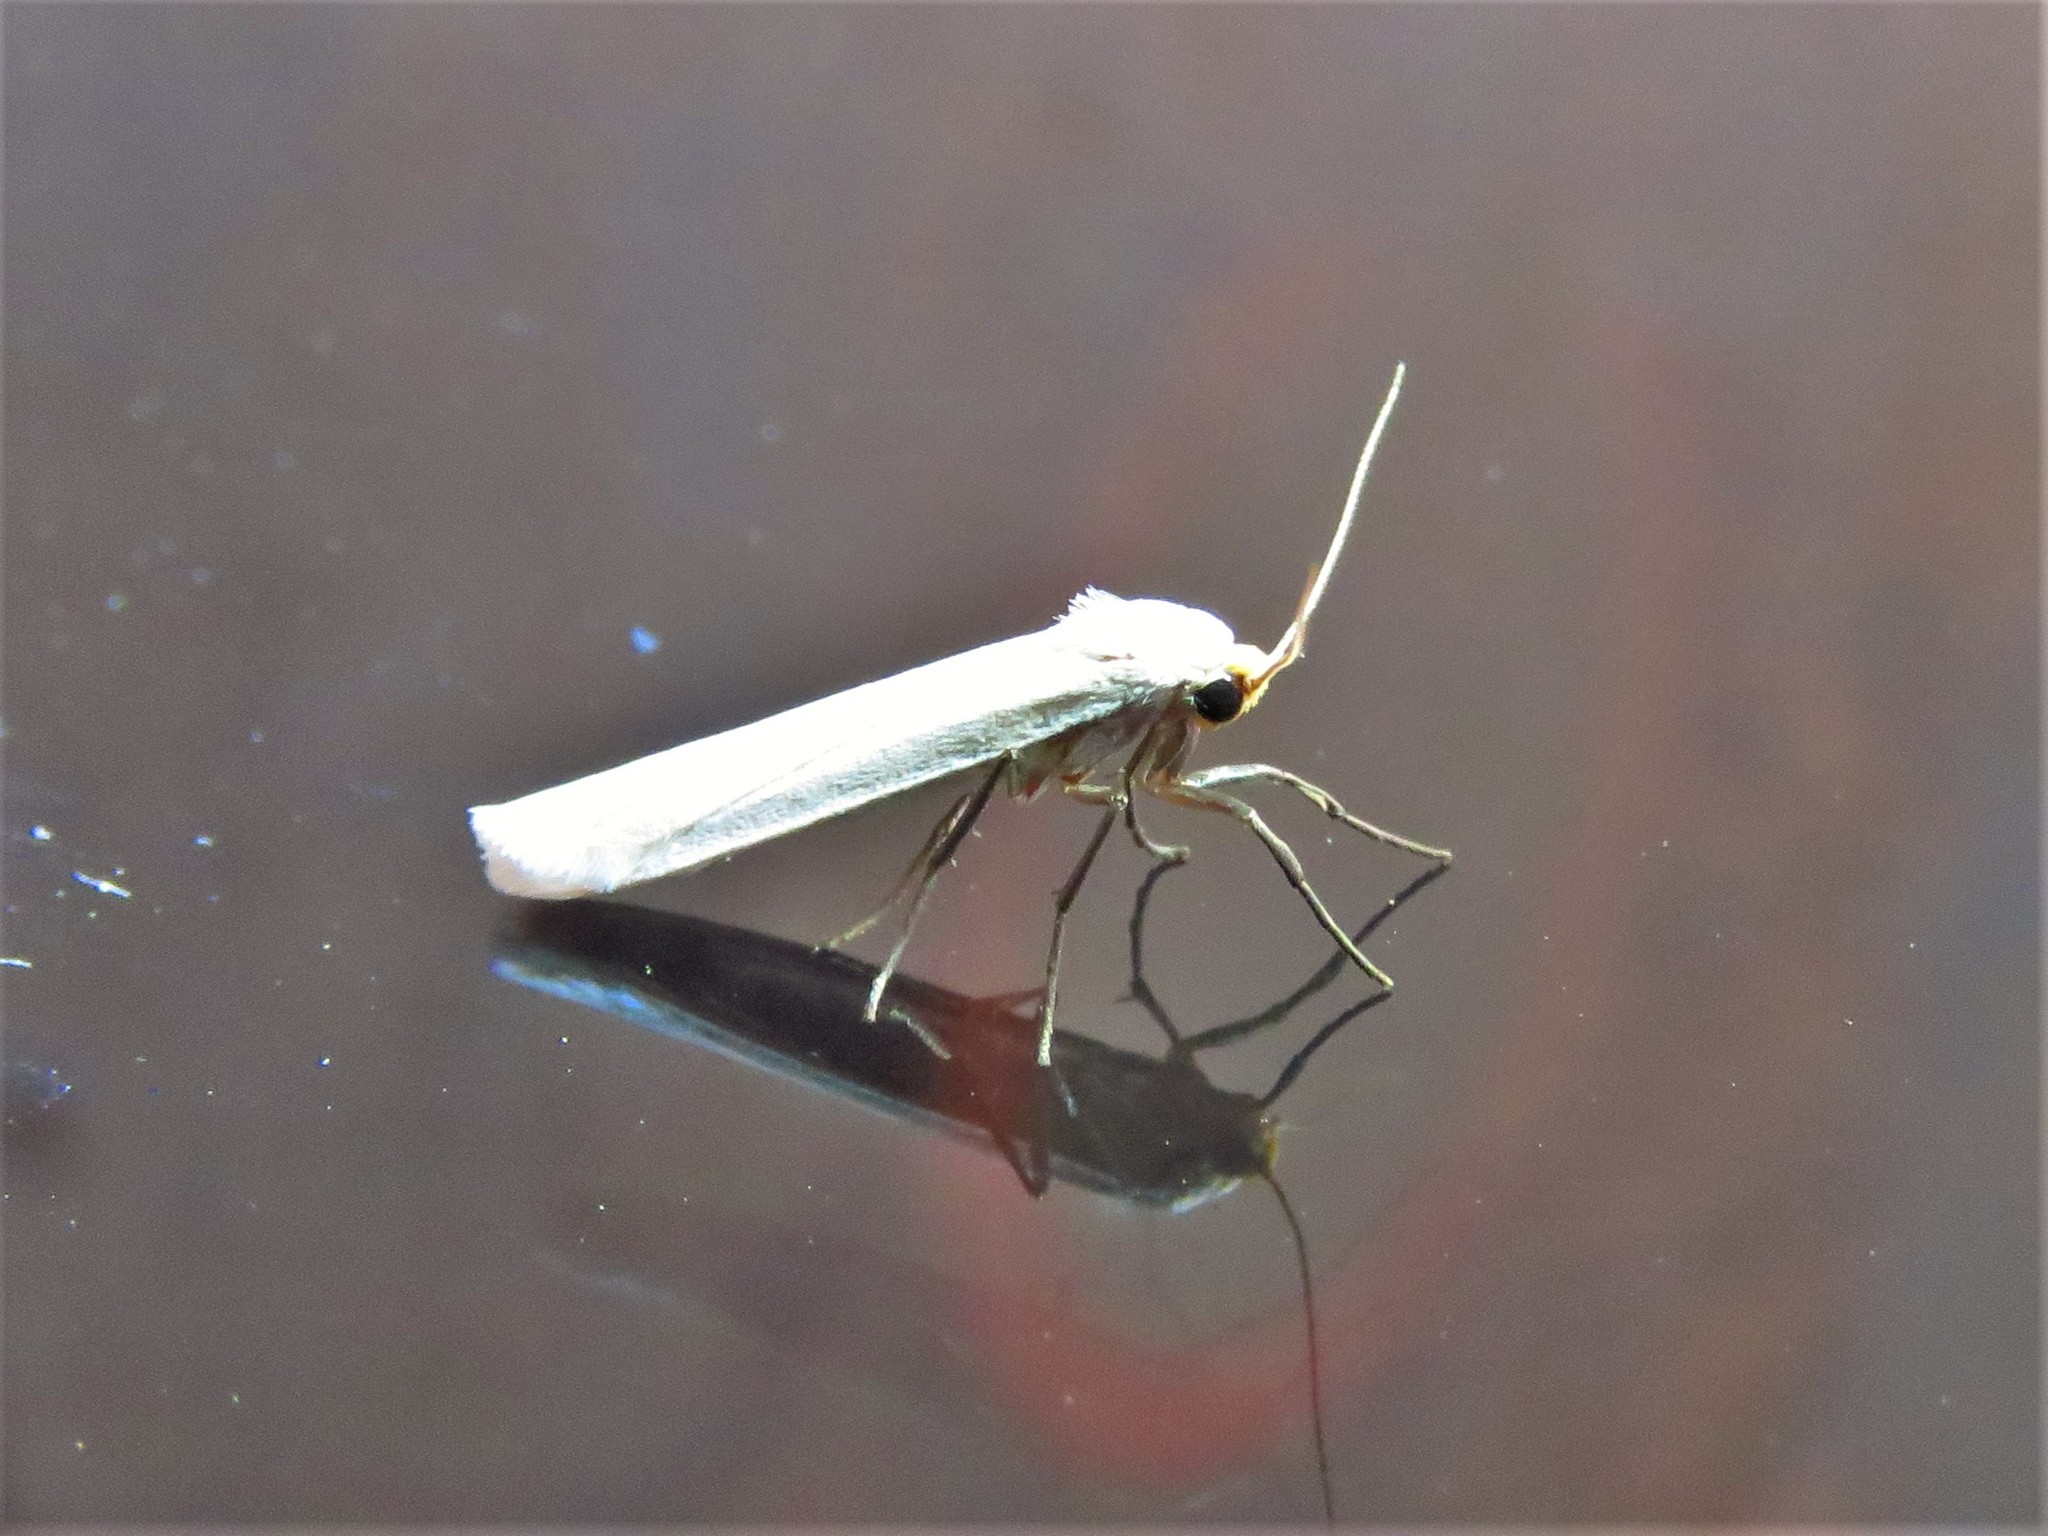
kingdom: Animalia
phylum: Arthropoda
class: Insecta
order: Lepidoptera
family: Erebidae
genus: Crambidia
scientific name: Crambidia cephalica
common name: Yellow-headed lichen moth
